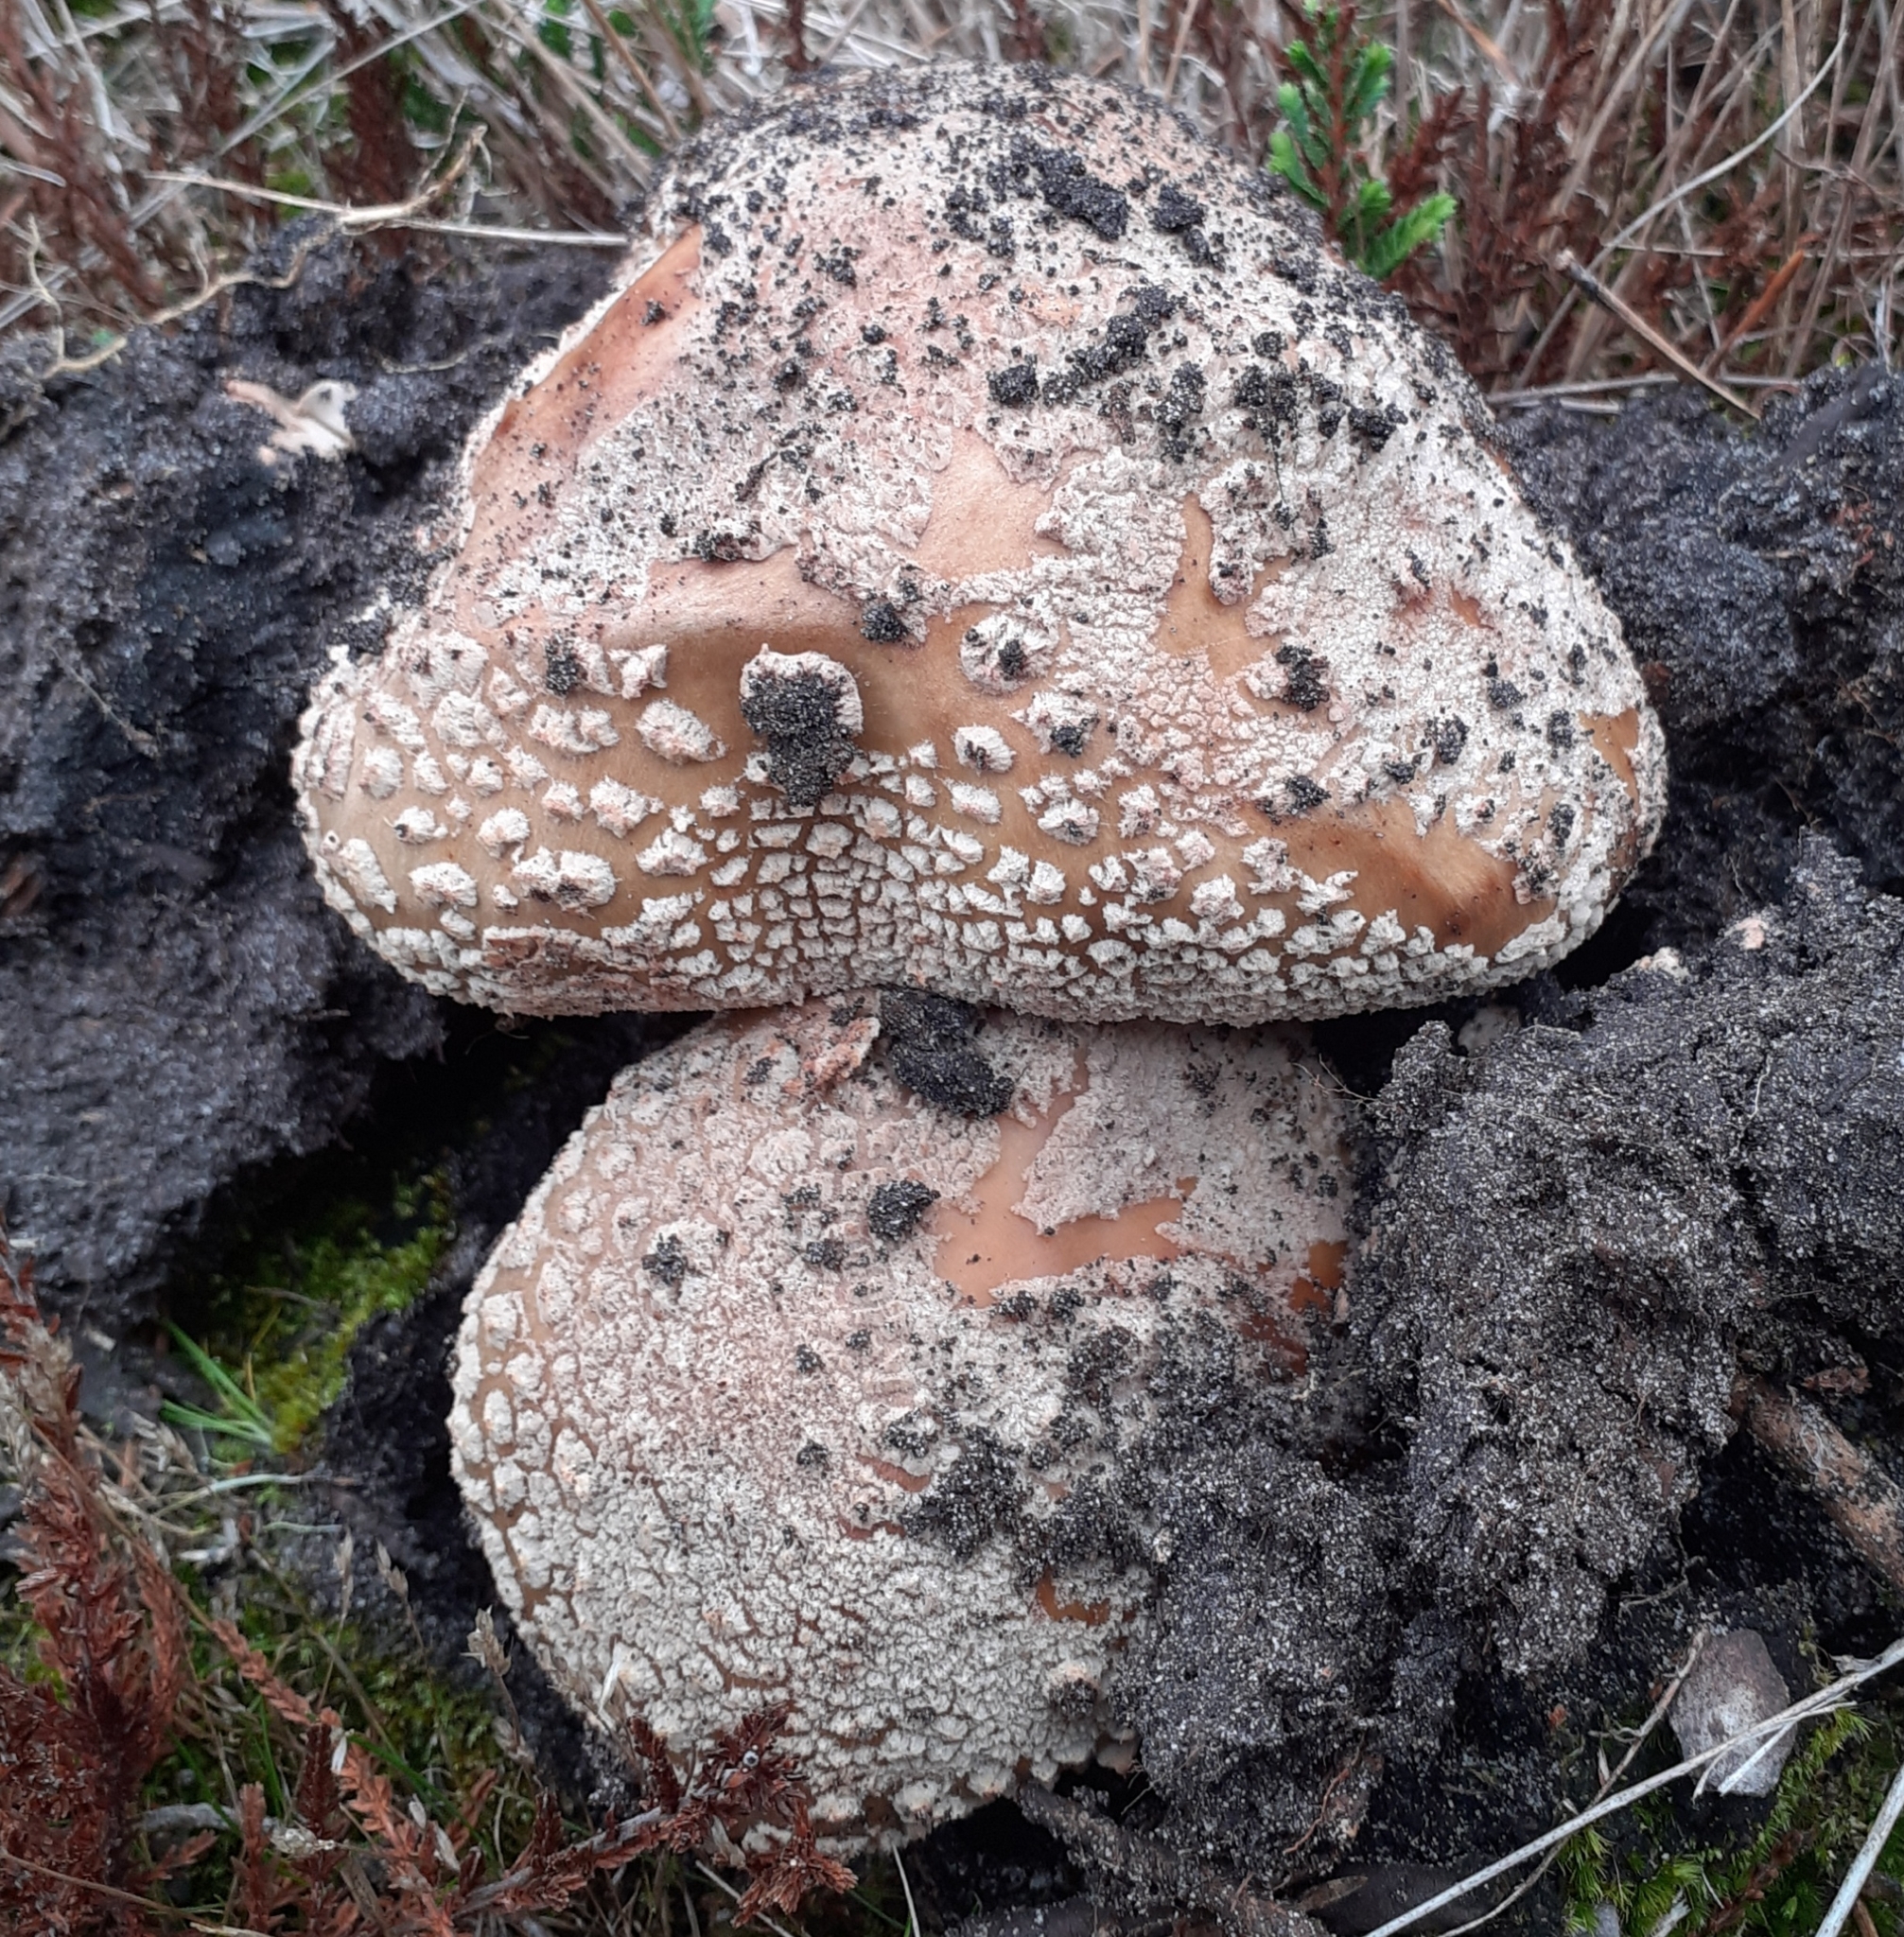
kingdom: Fungi
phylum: Basidiomycota
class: Agaricomycetes
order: Agaricales
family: Amanitaceae
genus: Amanita
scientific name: Amanita rubescens
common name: Blusher
